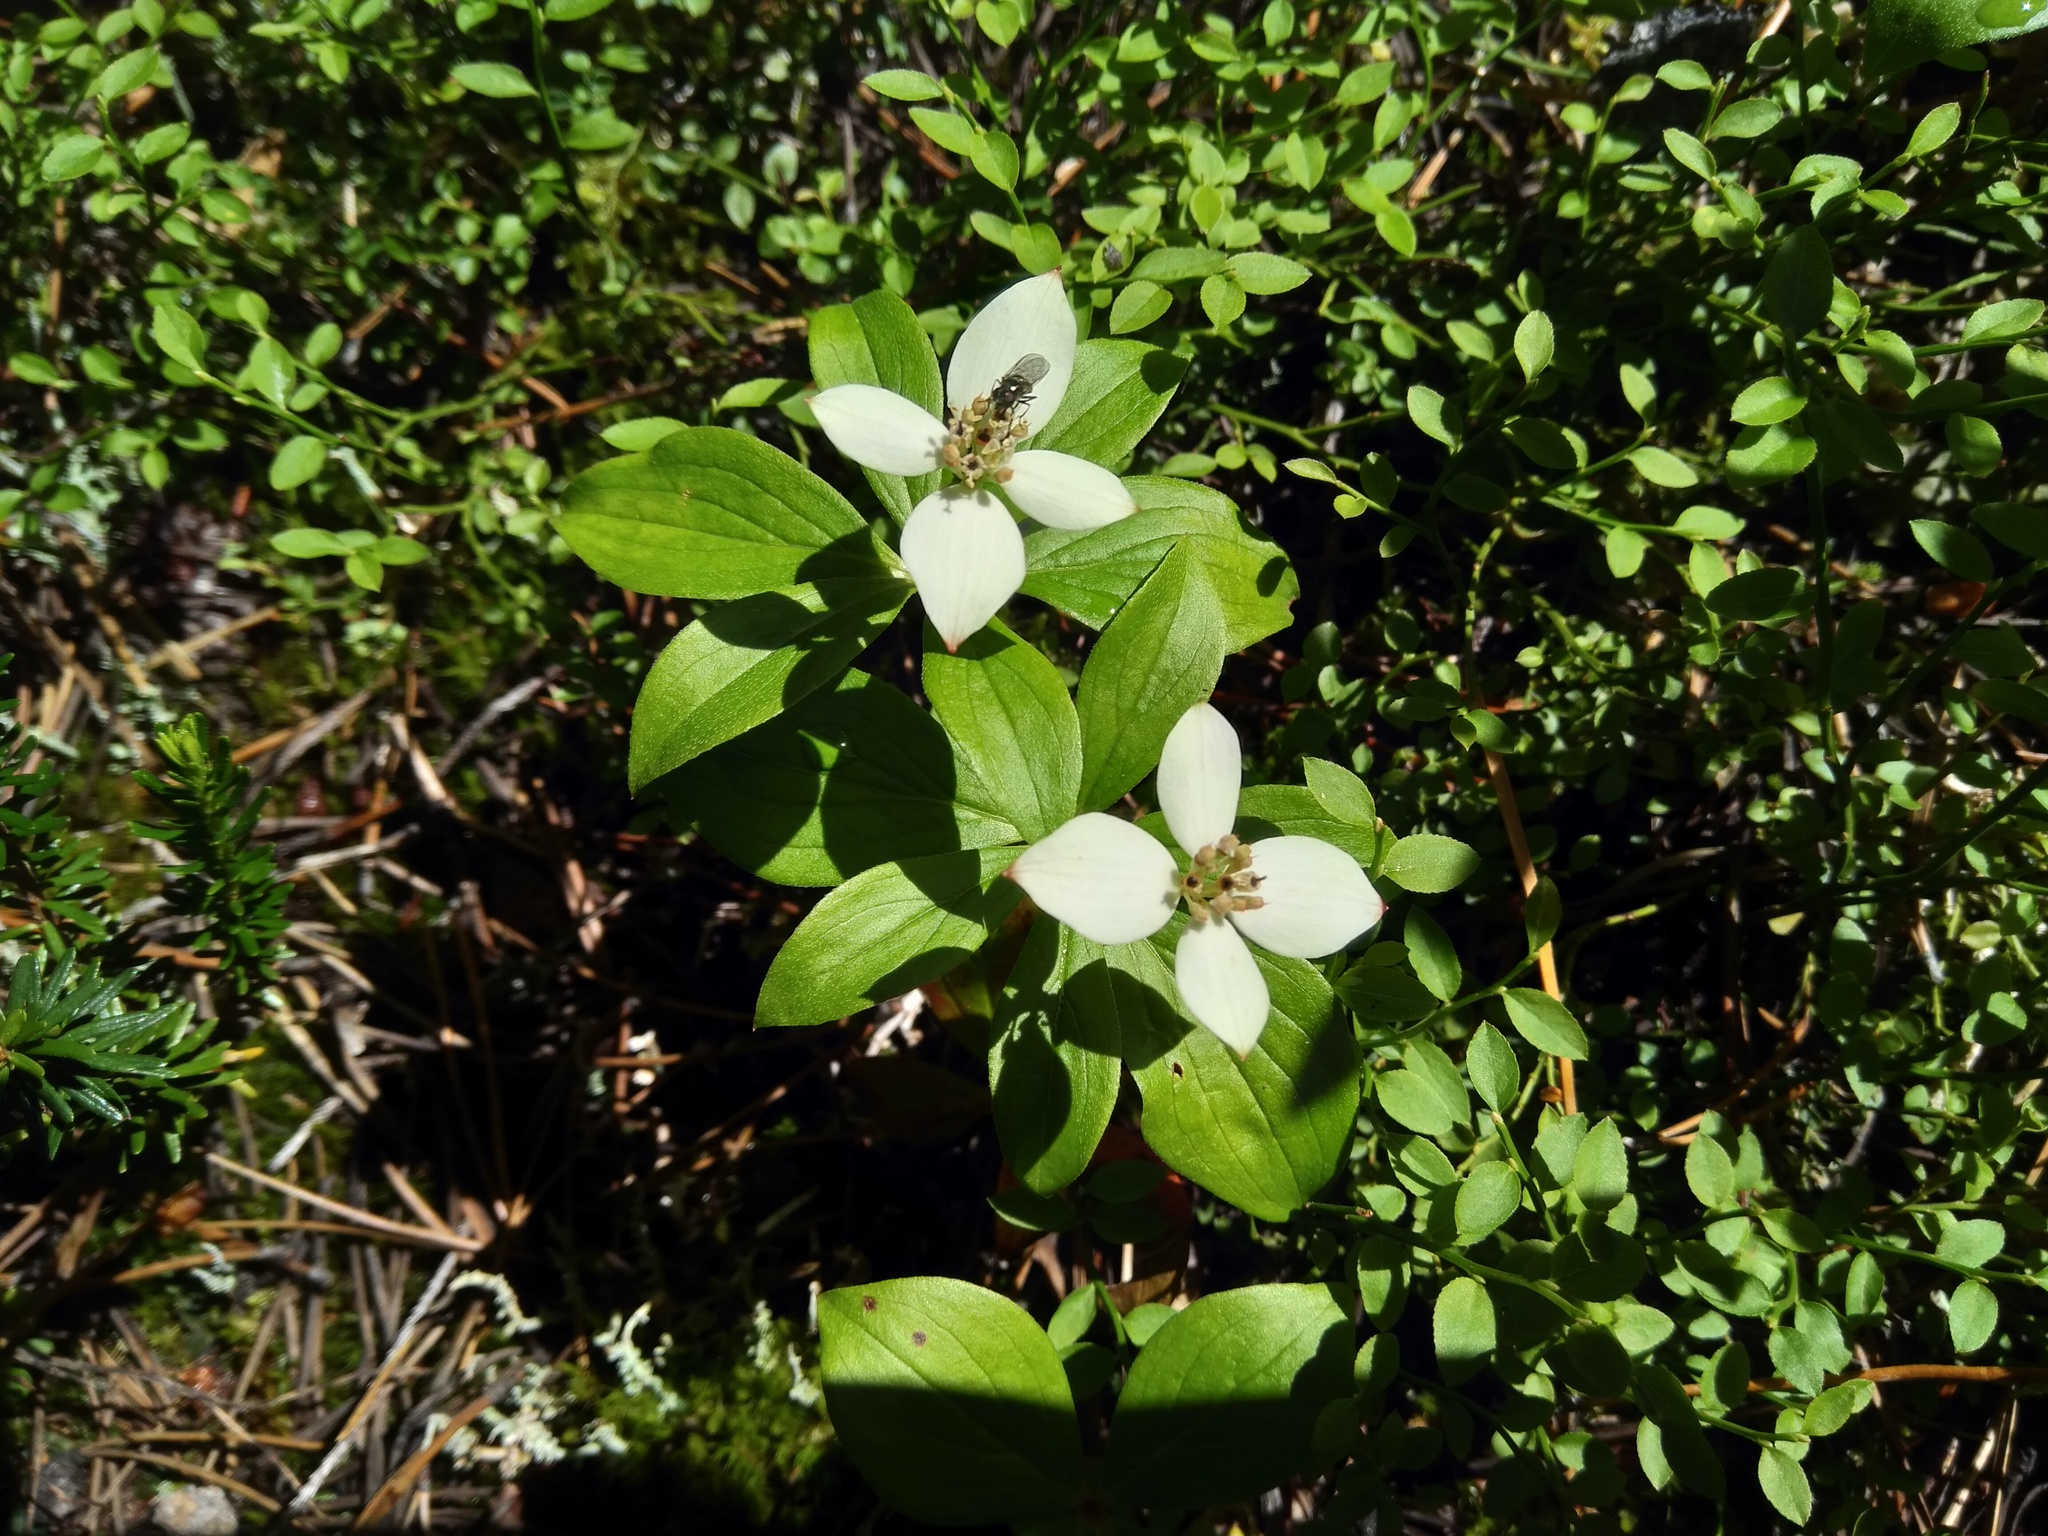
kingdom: Plantae
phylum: Tracheophyta
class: Magnoliopsida
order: Cornales
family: Cornaceae
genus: Cornus
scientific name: Cornus canadensis
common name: Creeping dogwood
